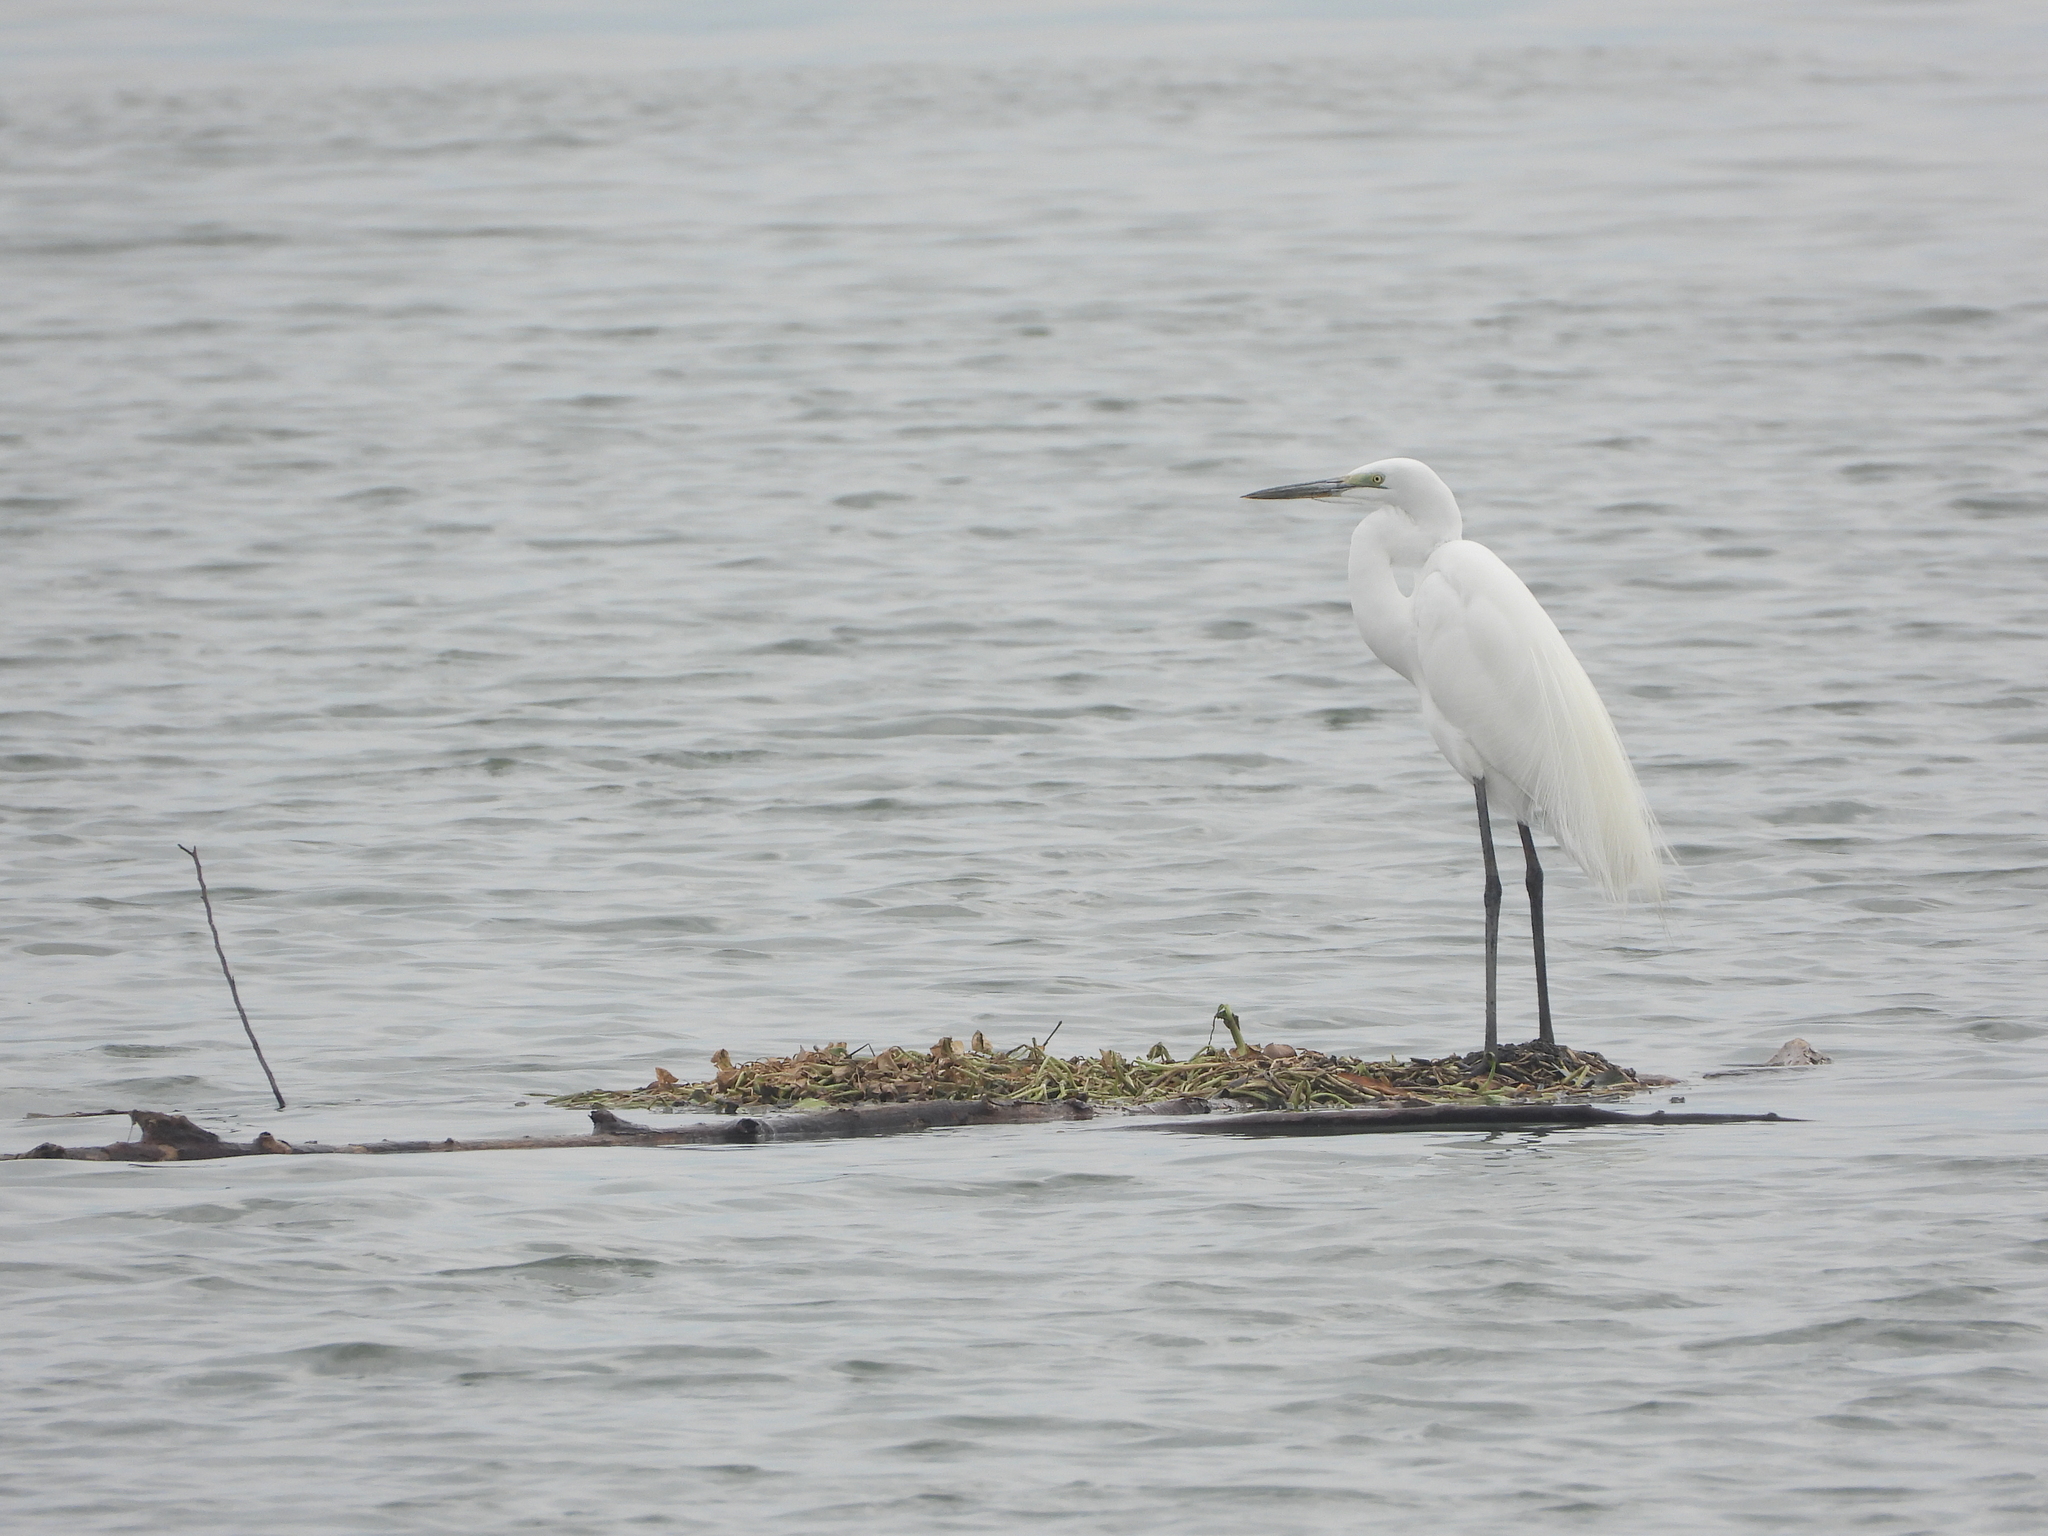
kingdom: Animalia
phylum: Chordata
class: Aves
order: Pelecaniformes
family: Ardeidae
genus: Ardea
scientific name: Ardea alba
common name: Great egret
